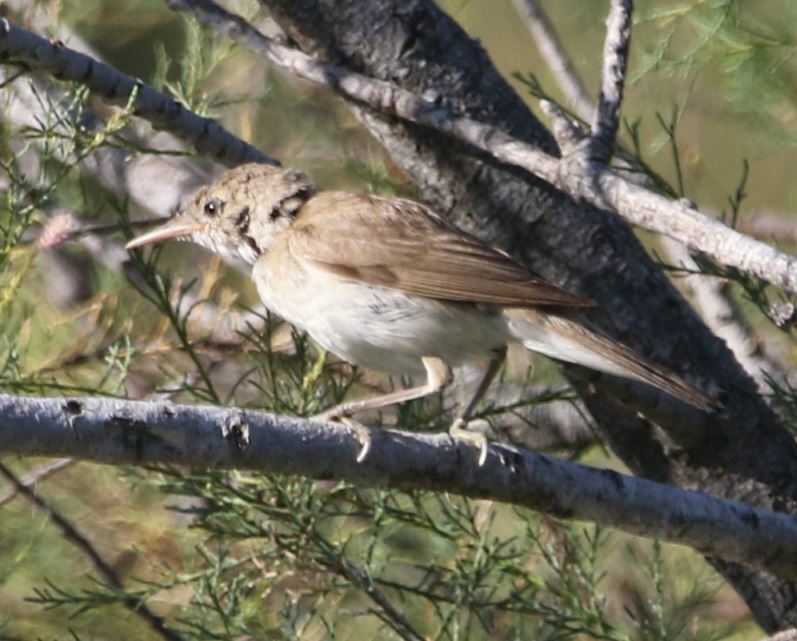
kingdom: Animalia
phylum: Chordata
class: Aves
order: Passeriformes
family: Acrocephalidae
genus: Acrocephalus
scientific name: Acrocephalus scirpaceus
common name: Eurasian reed warbler
